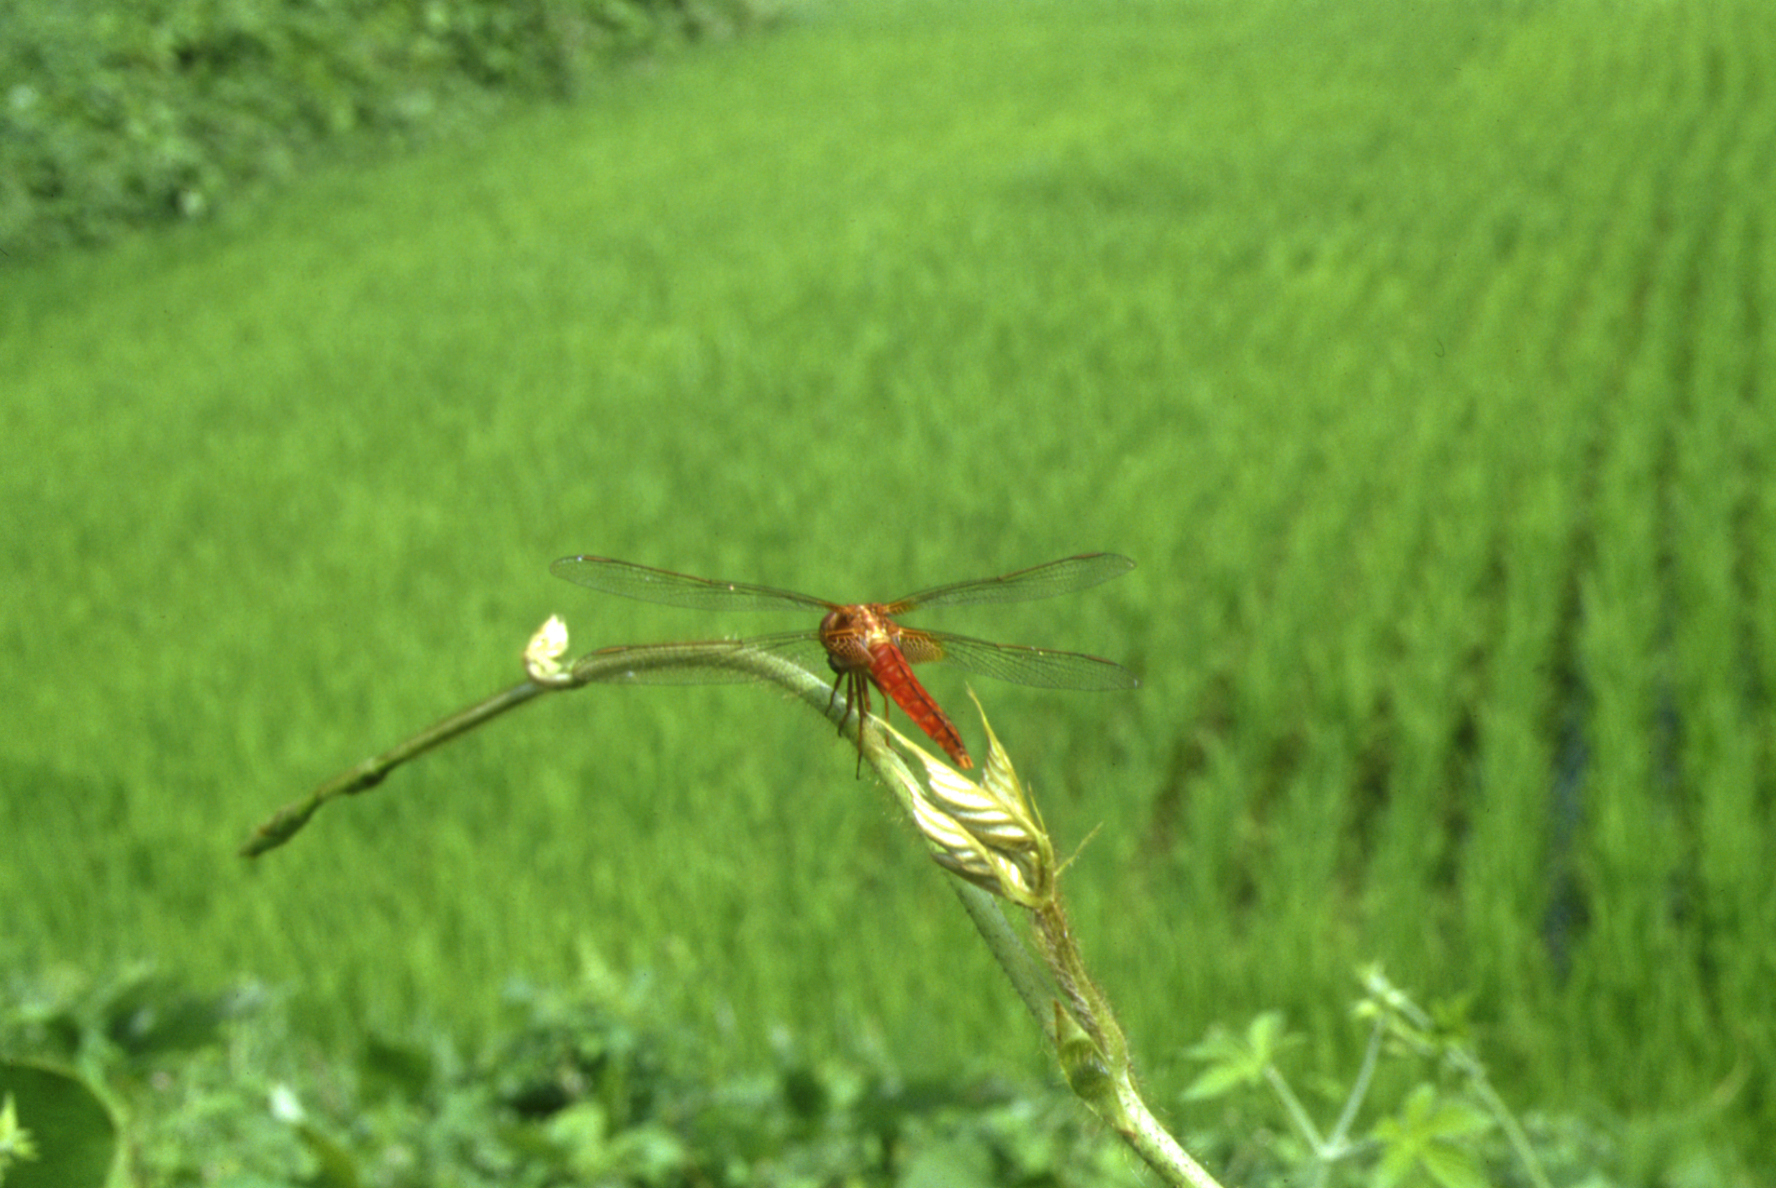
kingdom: Animalia
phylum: Arthropoda
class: Insecta
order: Odonata
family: Libellulidae
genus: Crocothemis
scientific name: Crocothemis servilia
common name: Scarlet skimmer
